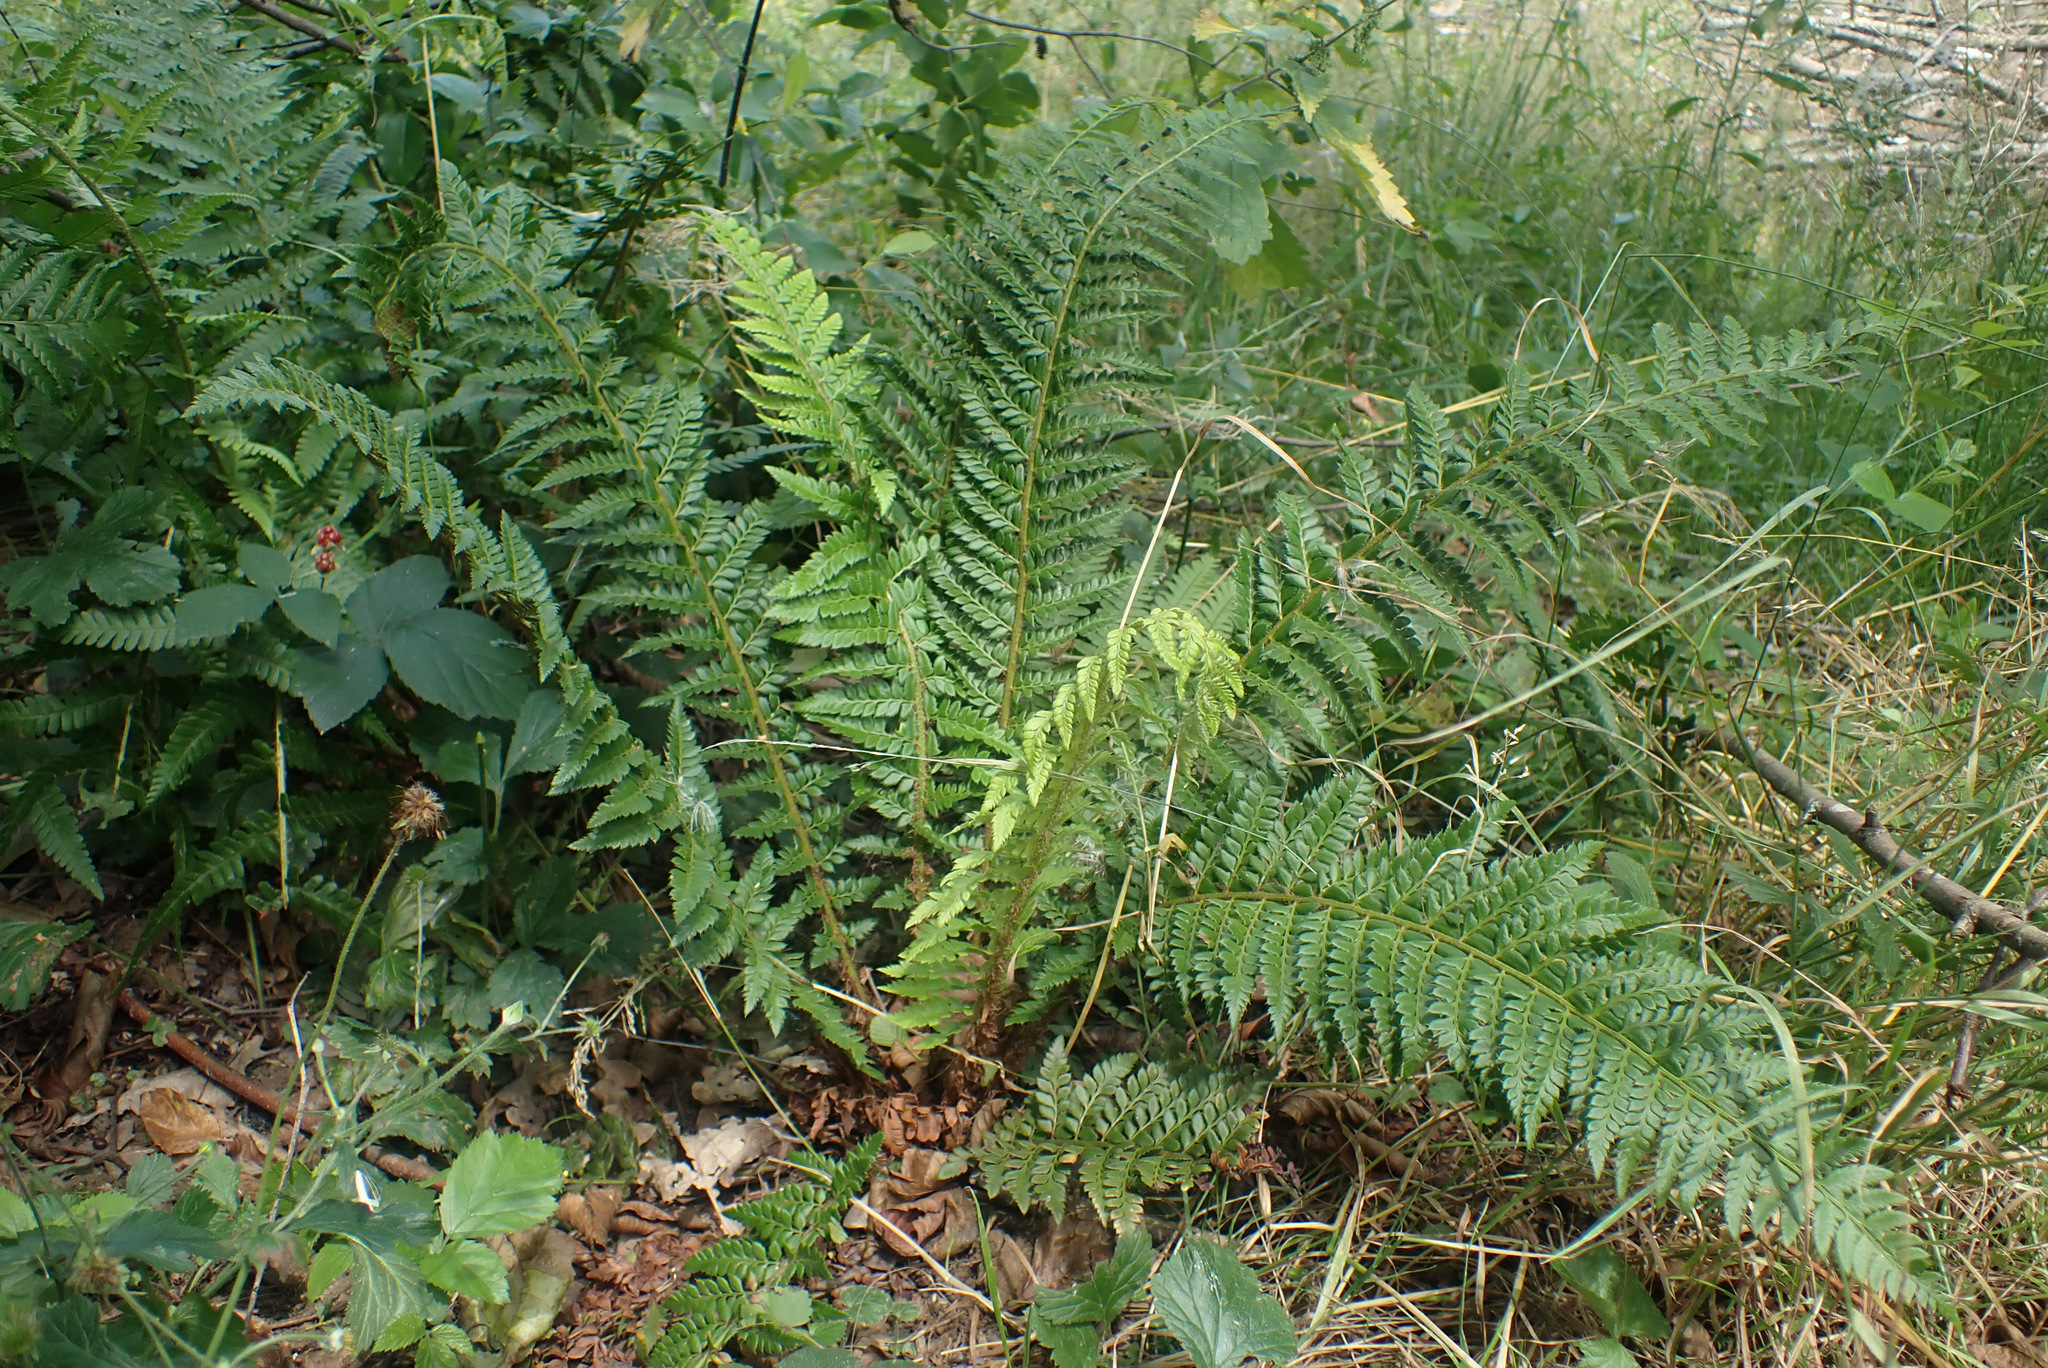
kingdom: Plantae
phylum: Tracheophyta
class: Polypodiopsida
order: Polypodiales
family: Dryopteridaceae
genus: Polystichum
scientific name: Polystichum aculeatum
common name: Hard shield-fern
